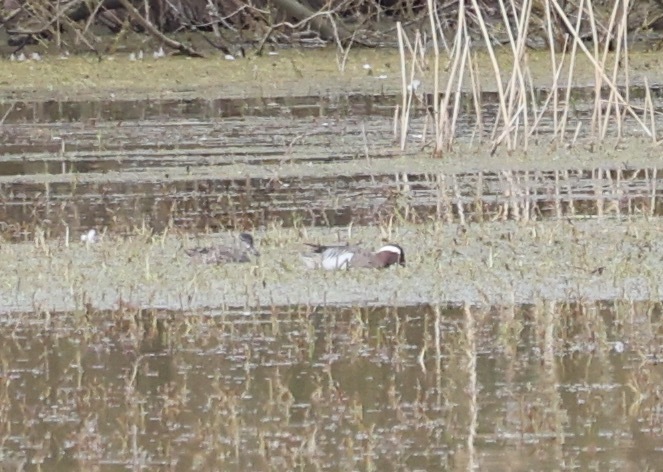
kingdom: Animalia
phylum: Chordata
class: Aves
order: Anseriformes
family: Anatidae
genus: Spatula
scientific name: Spatula querquedula
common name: Garganey
